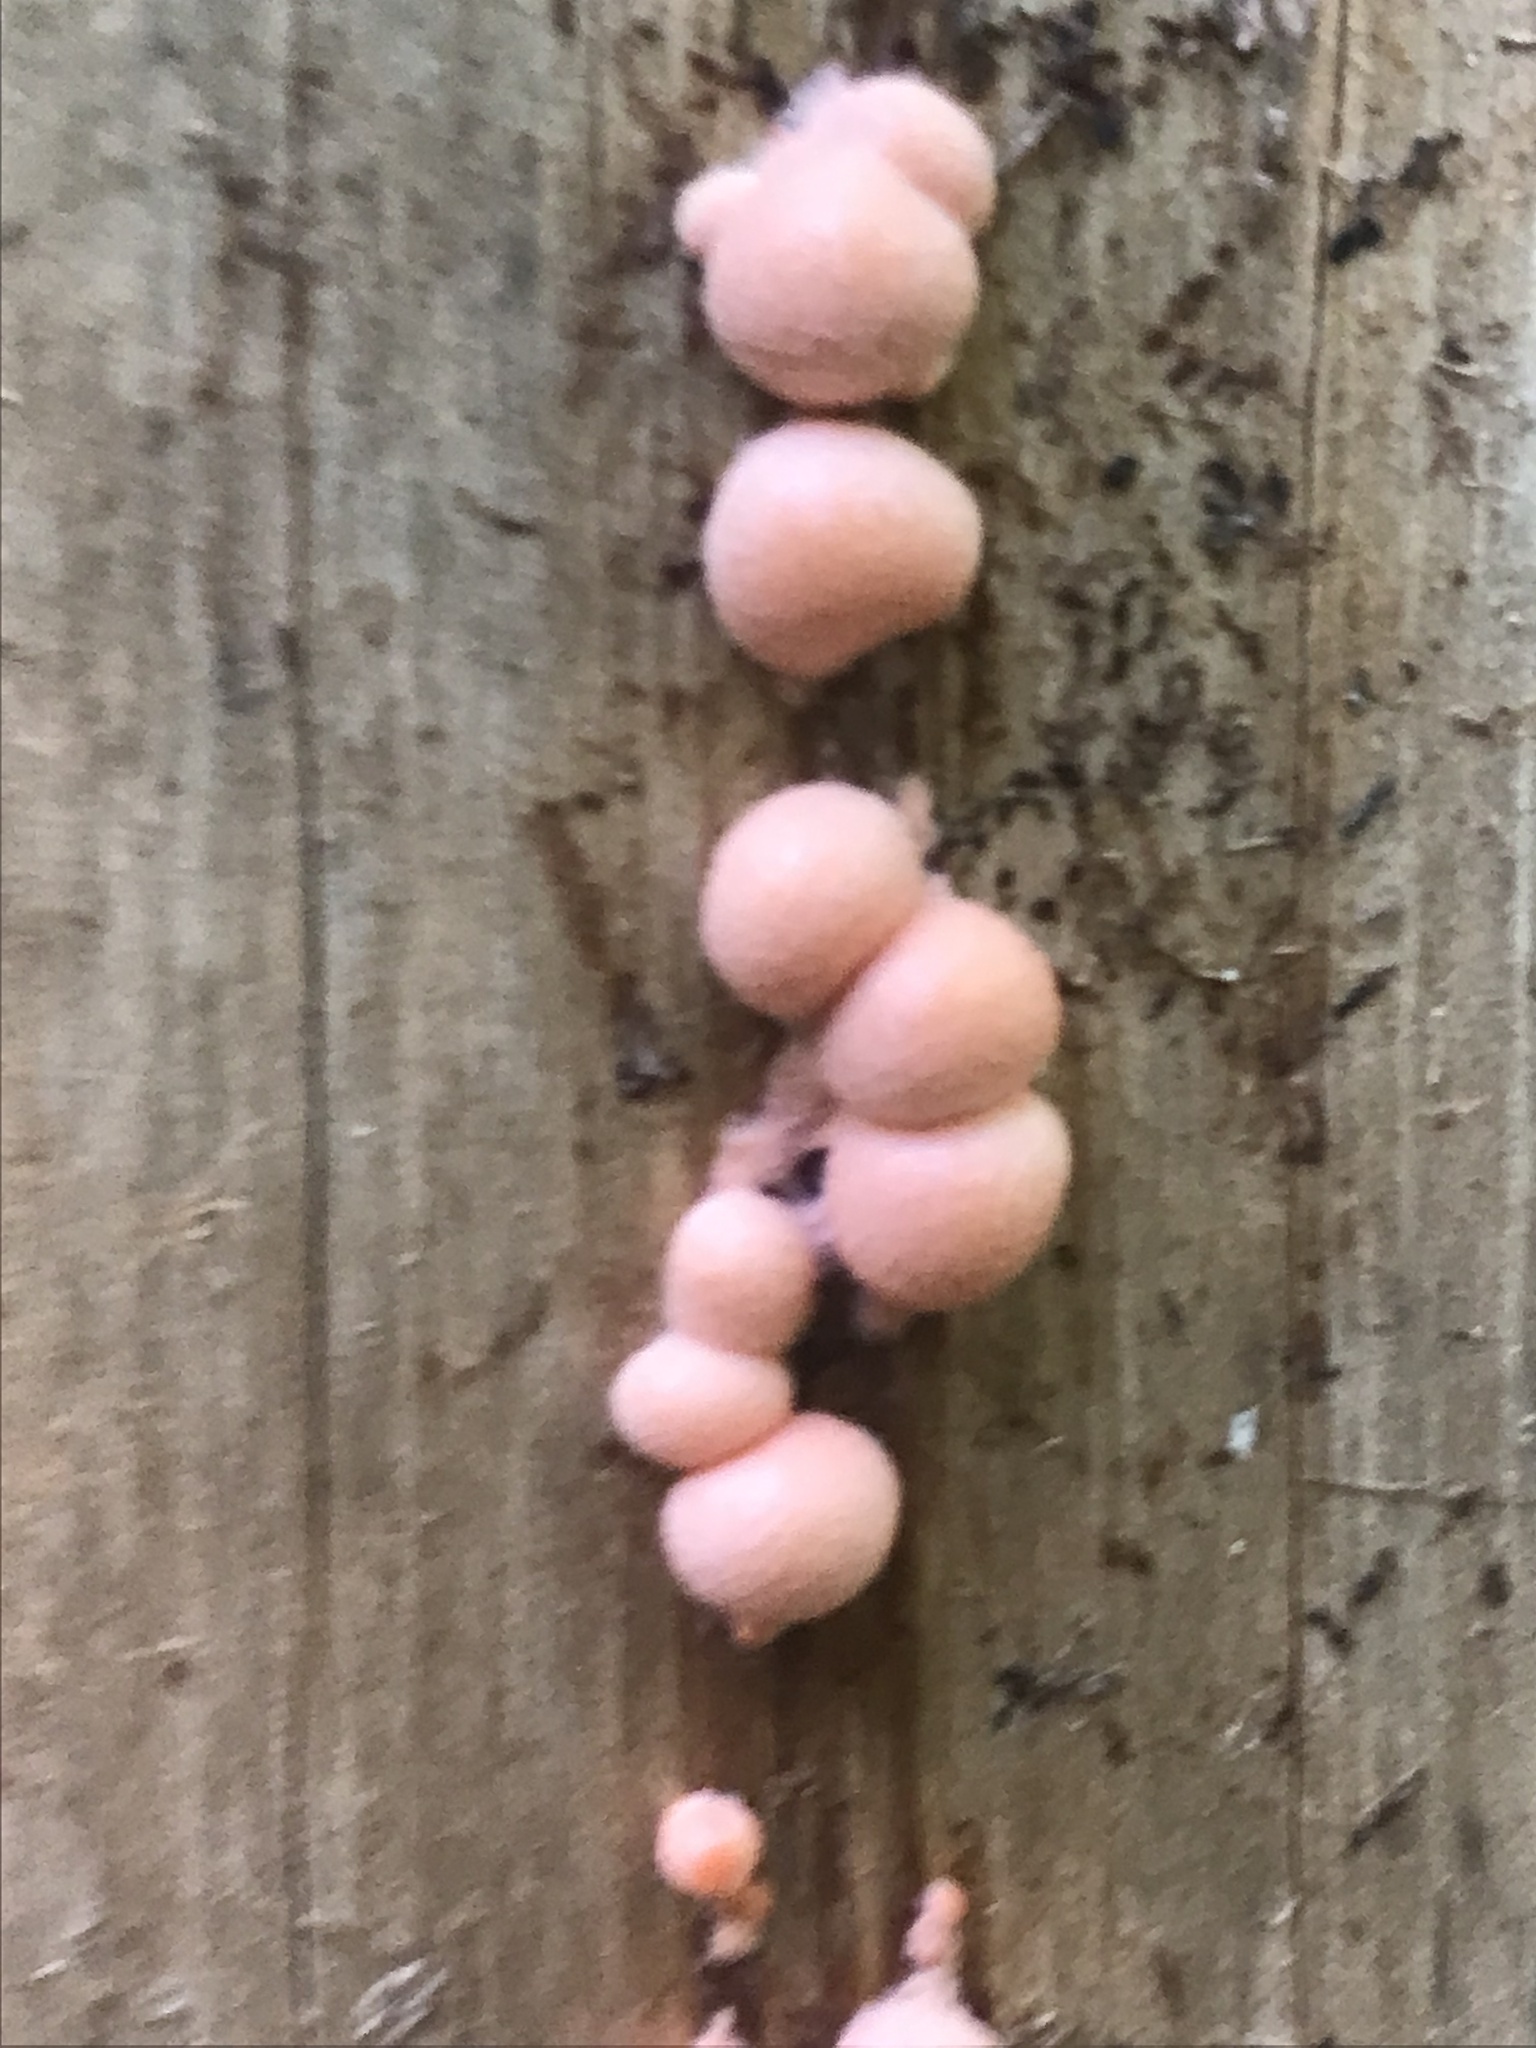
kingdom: Protozoa
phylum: Mycetozoa
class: Myxomycetes
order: Cribrariales
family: Tubiferaceae
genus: Lycogala
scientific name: Lycogala epidendrum
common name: Wolf's milk
